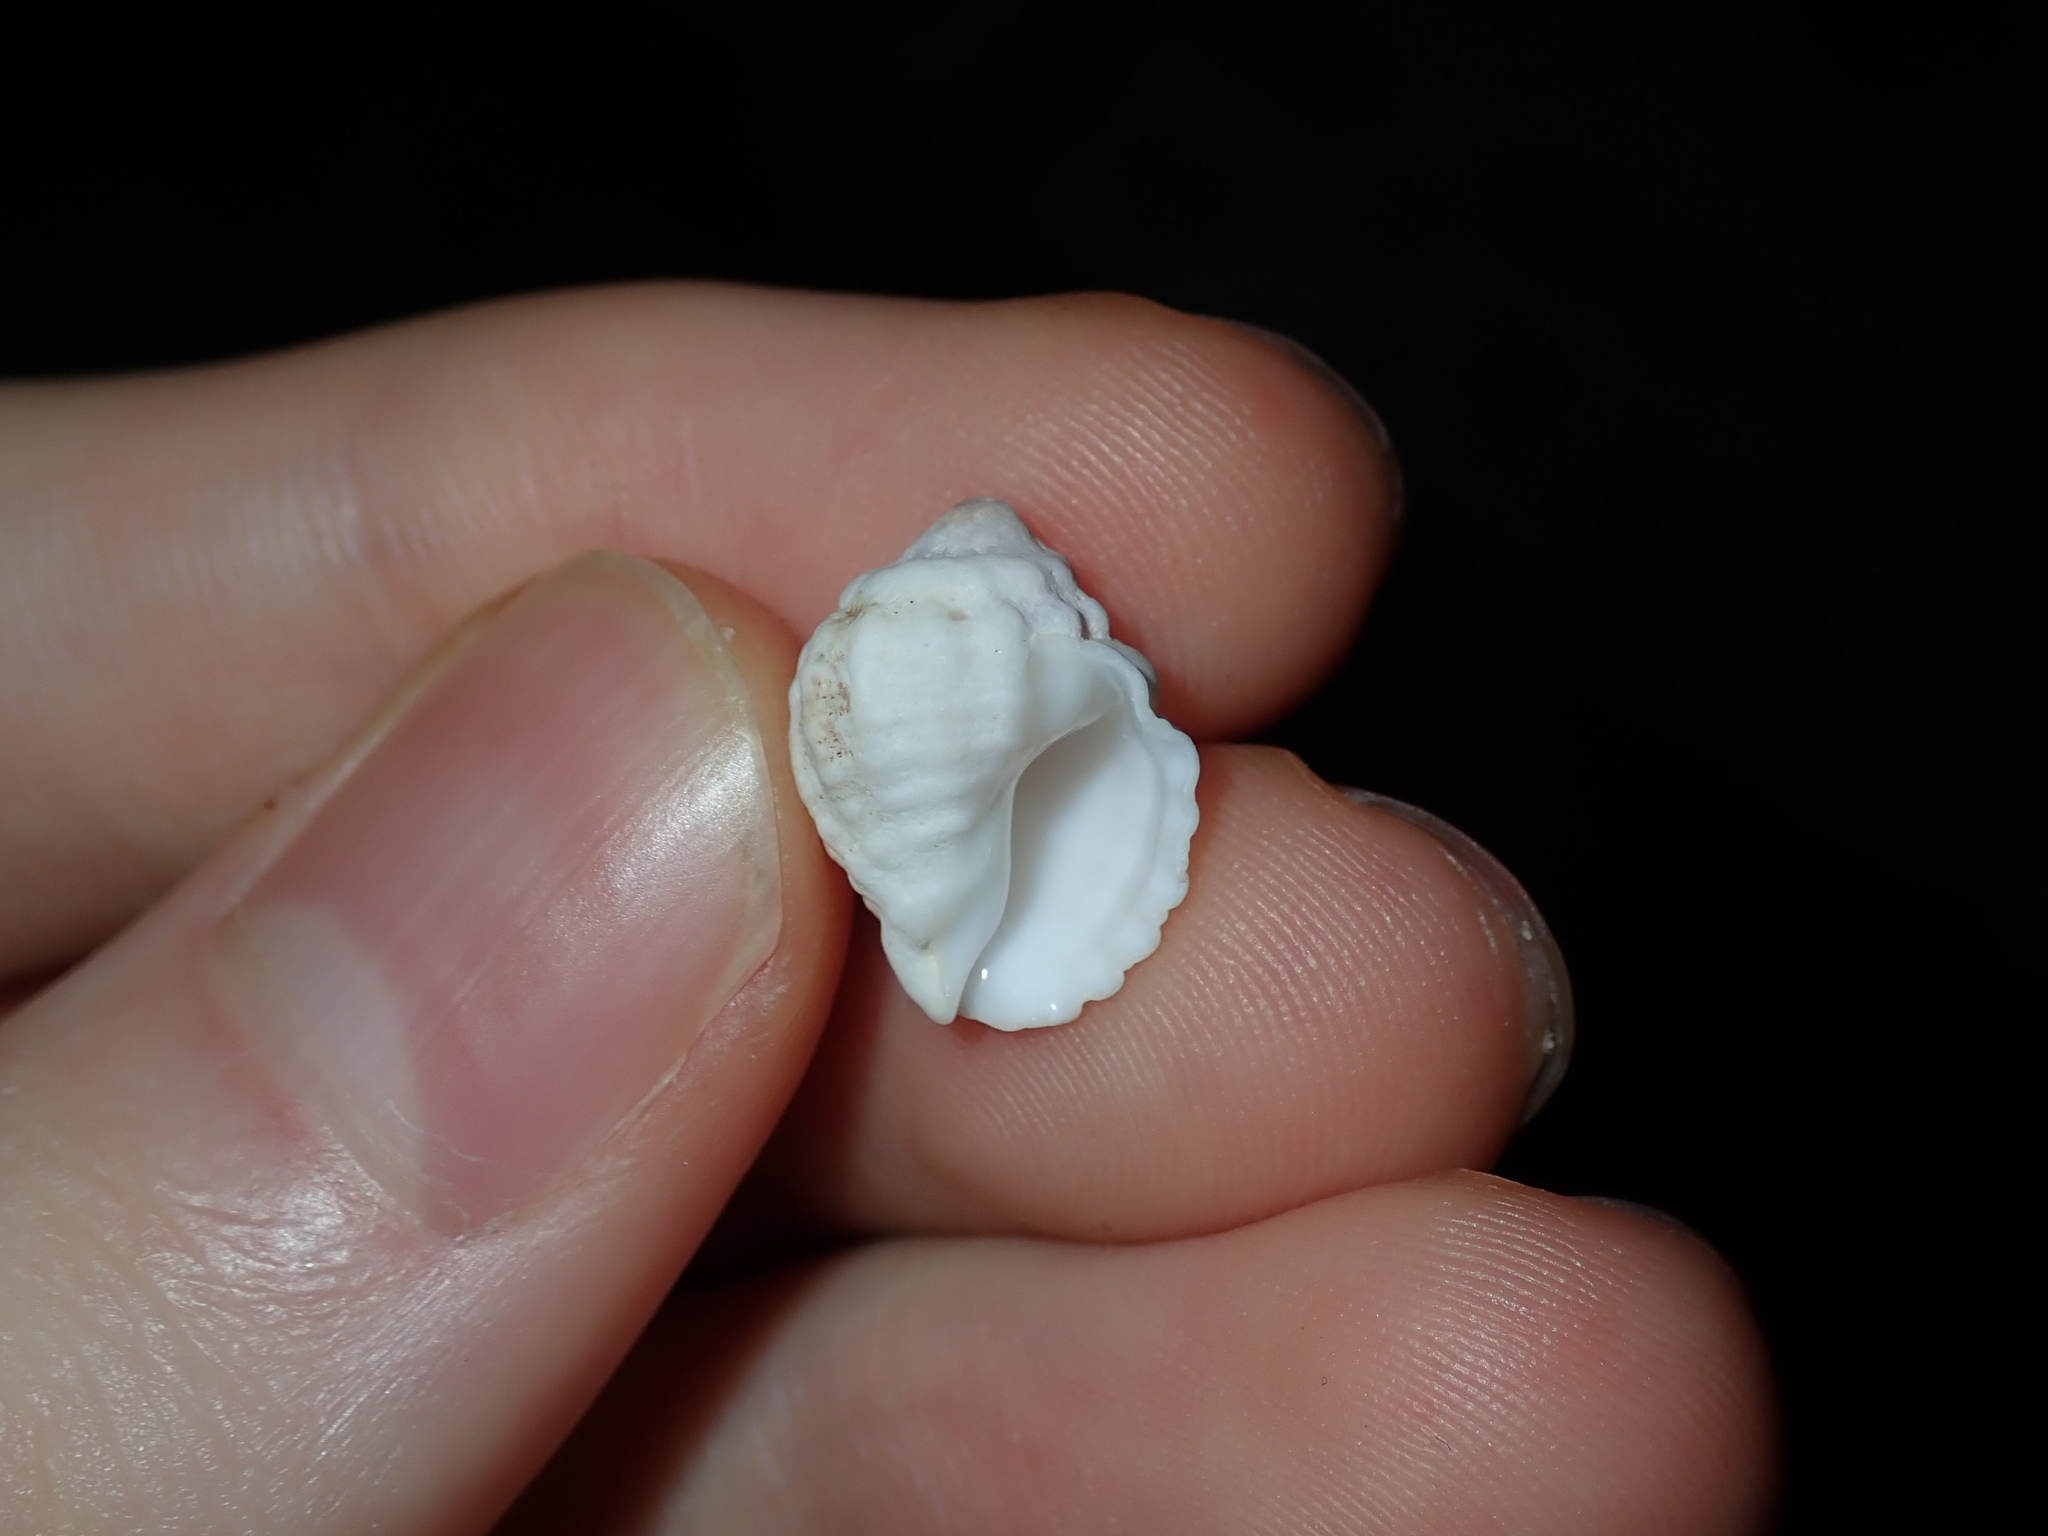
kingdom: Animalia
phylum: Mollusca
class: Gastropoda
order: Neogastropoda
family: Muricidae
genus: Oppomorus
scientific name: Oppomorus noduliferus
